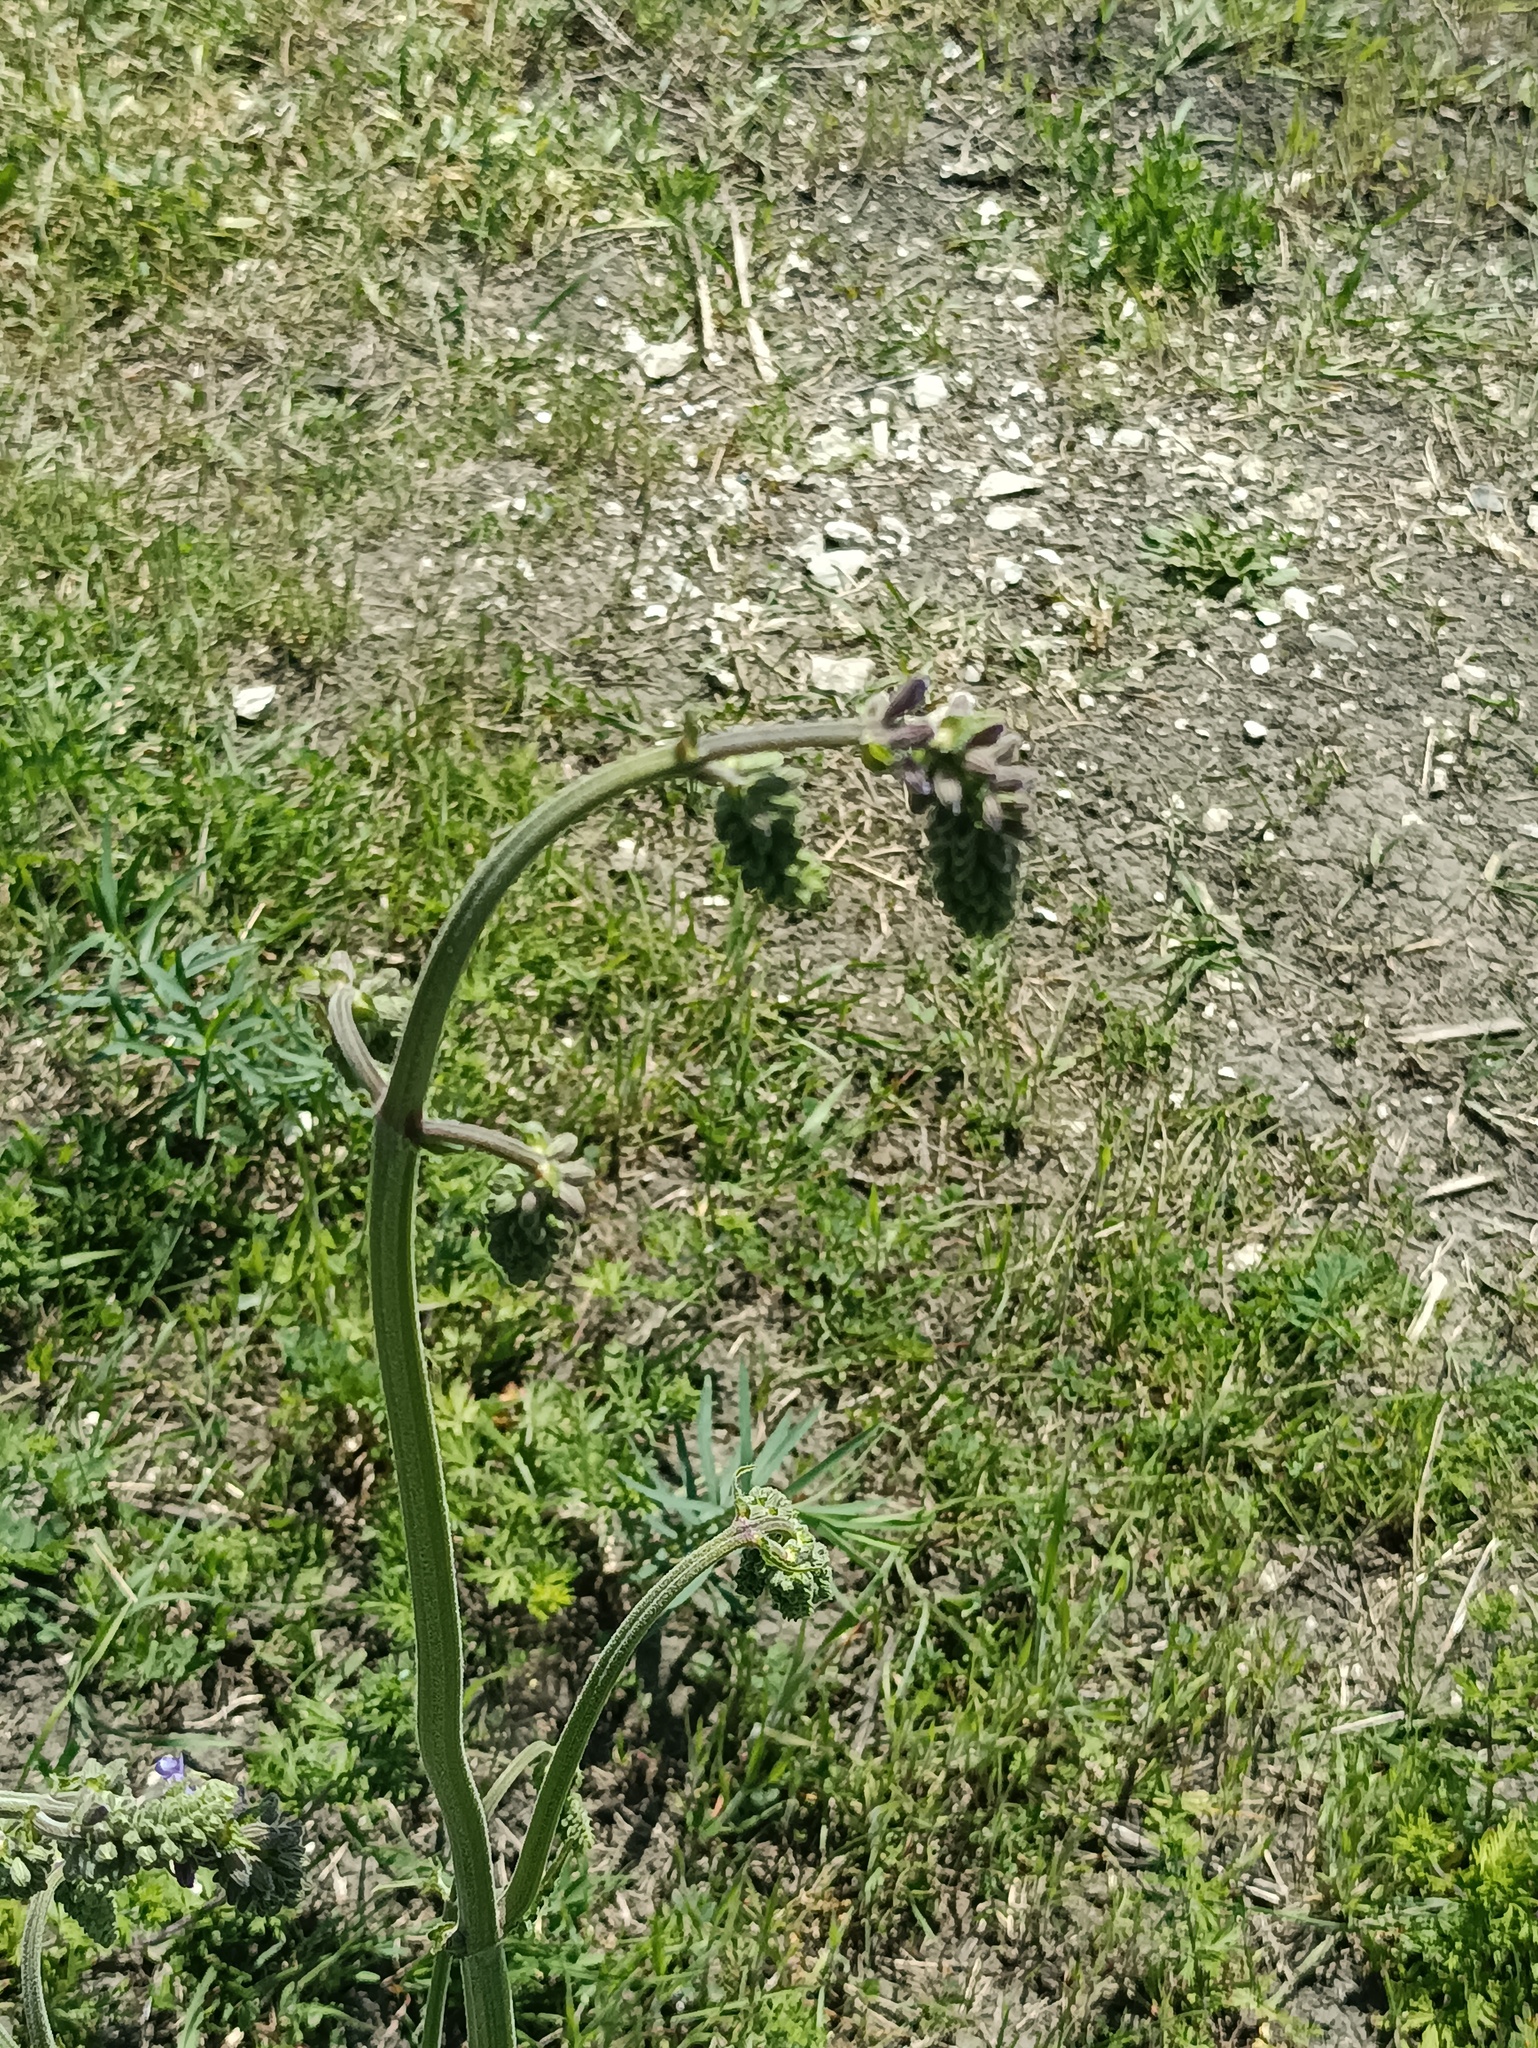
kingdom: Plantae
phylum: Tracheophyta
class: Magnoliopsida
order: Lamiales
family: Lamiaceae
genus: Salvia
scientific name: Salvia nutans
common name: Nodding sage
